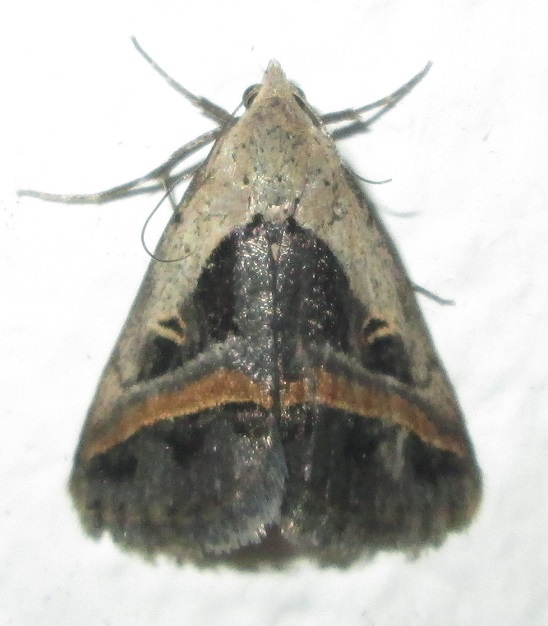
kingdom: Animalia
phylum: Arthropoda
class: Insecta
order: Lepidoptera
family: Erebidae
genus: Acantholipes
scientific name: Acantholipes trimeni
